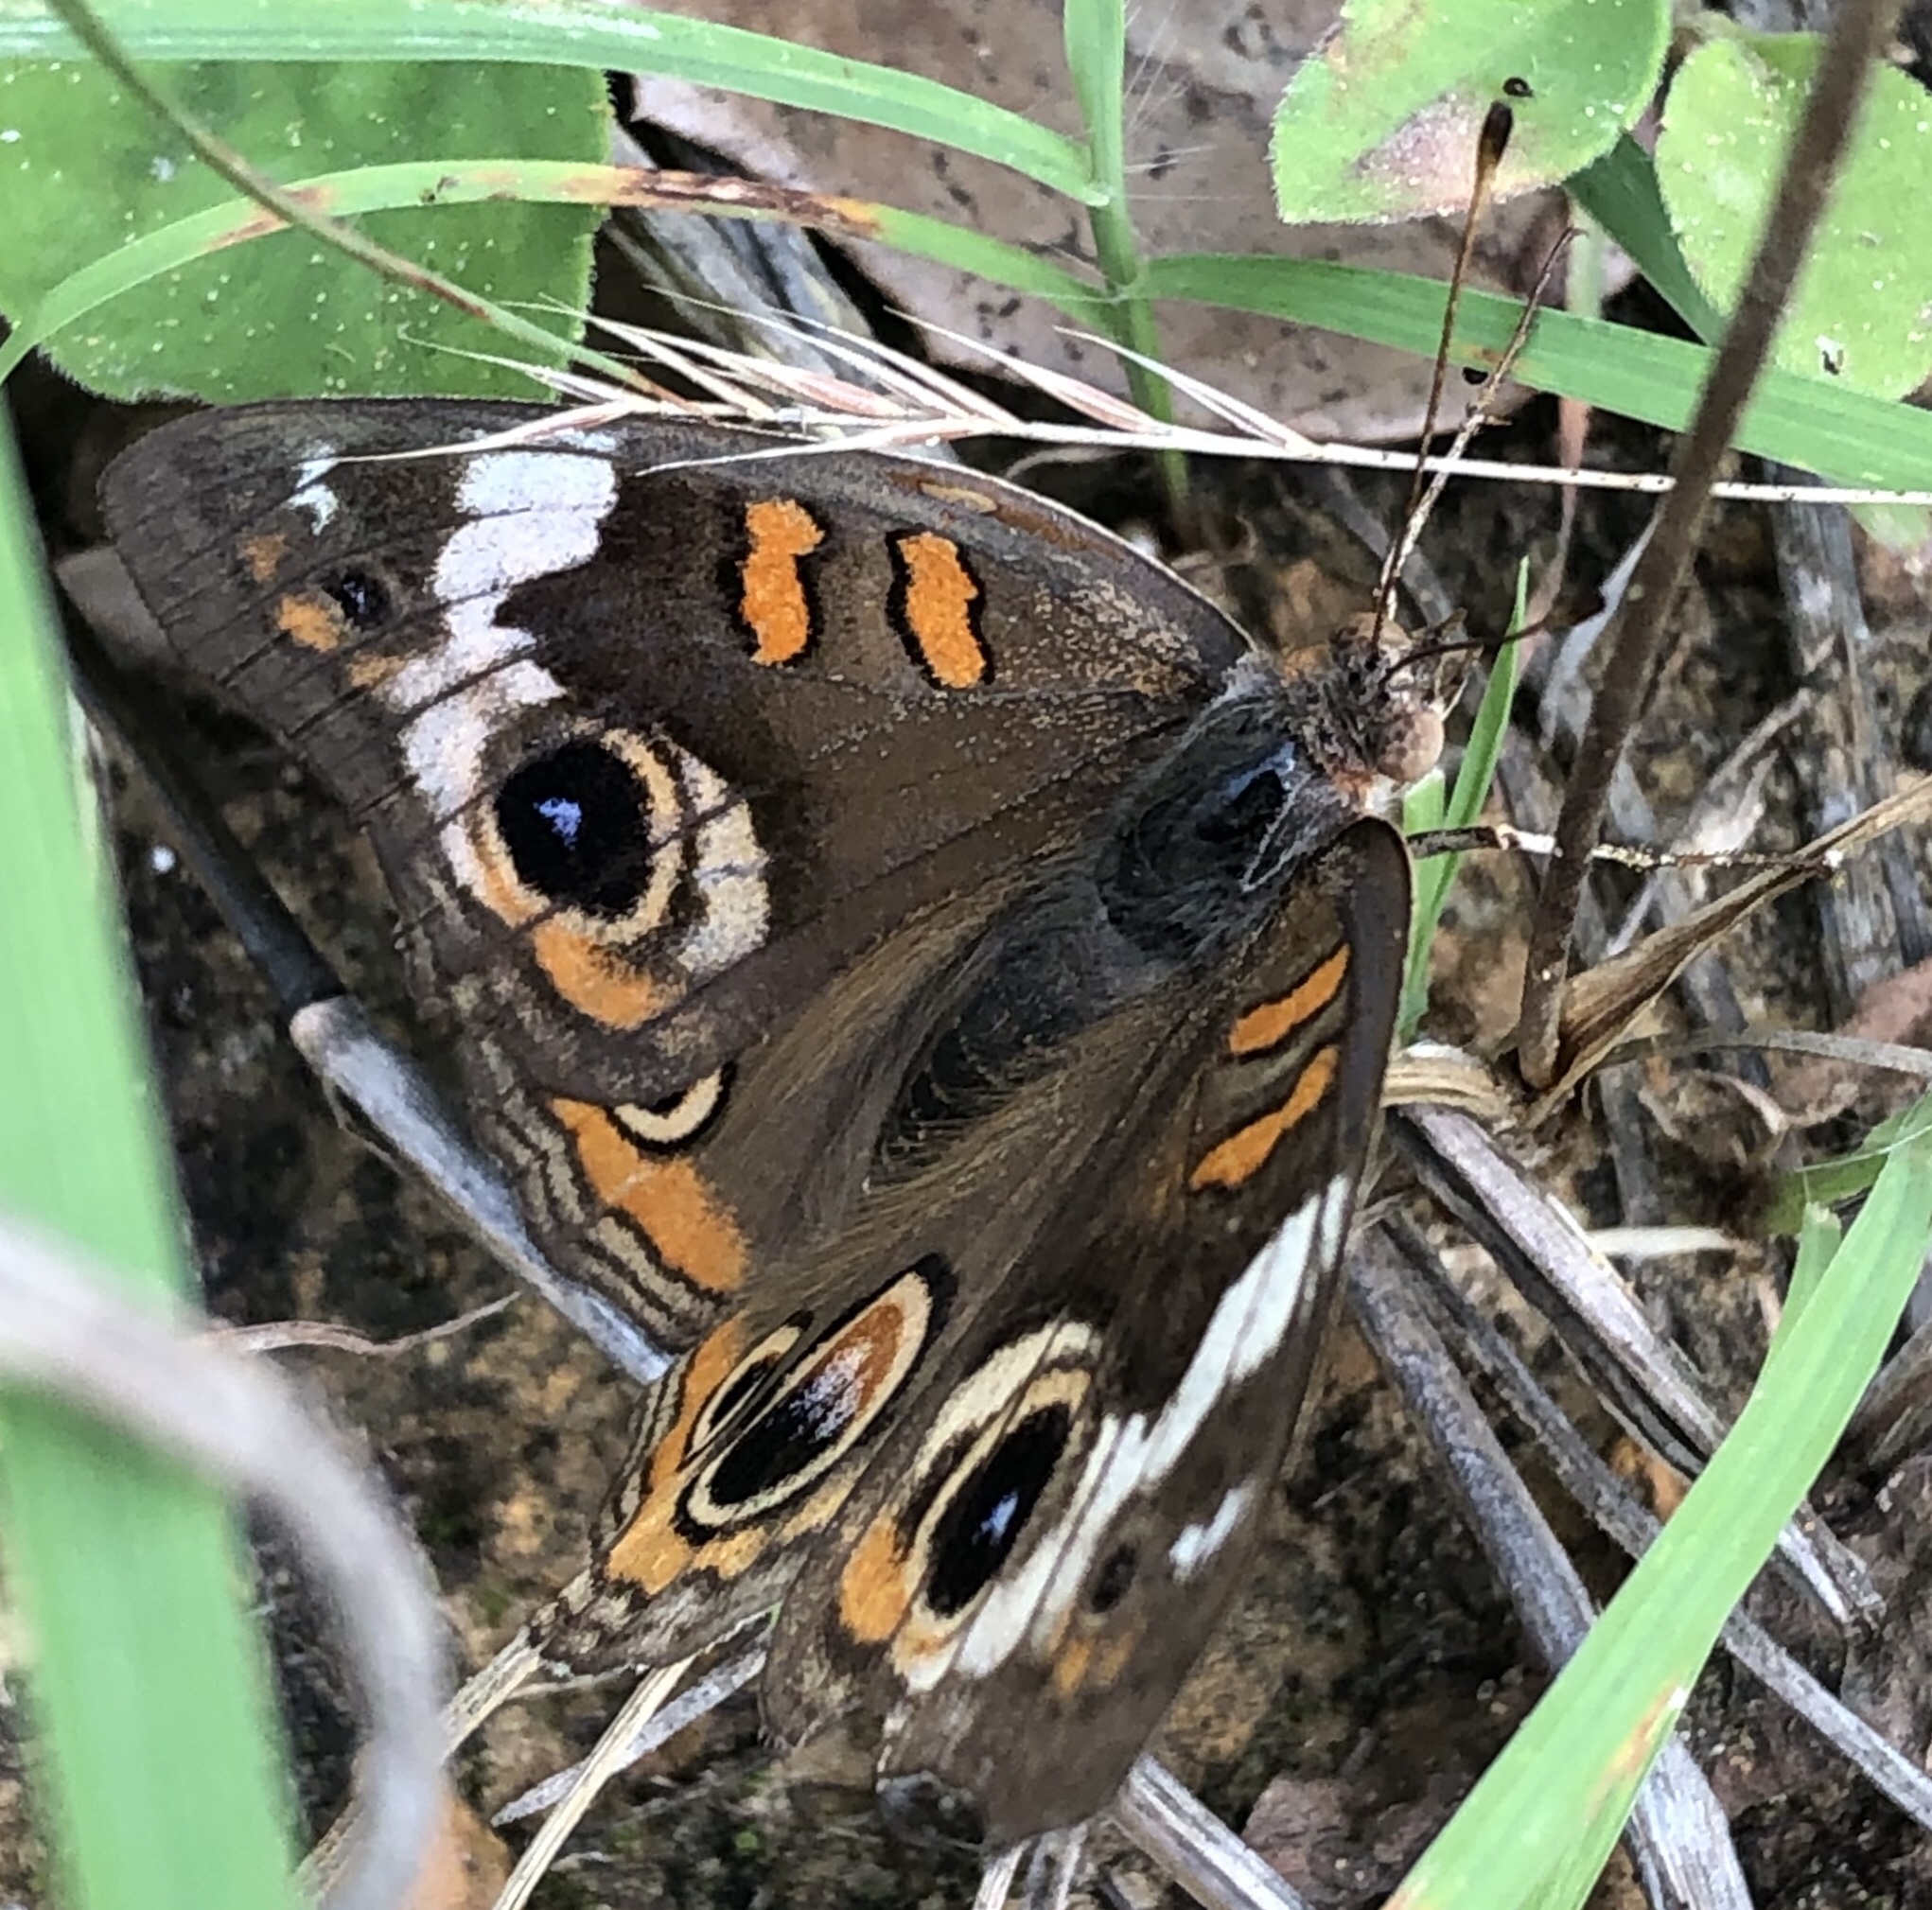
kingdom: Animalia
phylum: Arthropoda
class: Insecta
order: Lepidoptera
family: Nymphalidae
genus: Junonia
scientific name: Junonia coenia
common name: Common buckeye
